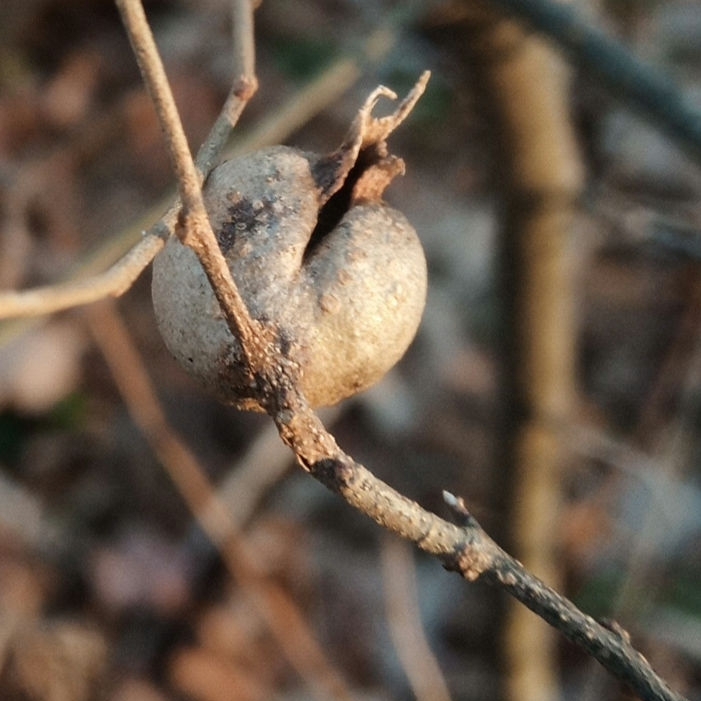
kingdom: Animalia
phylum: Arthropoda
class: Insecta
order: Hemiptera
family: Aphalaridae
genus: Pachypsylla
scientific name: Pachypsylla venusta
